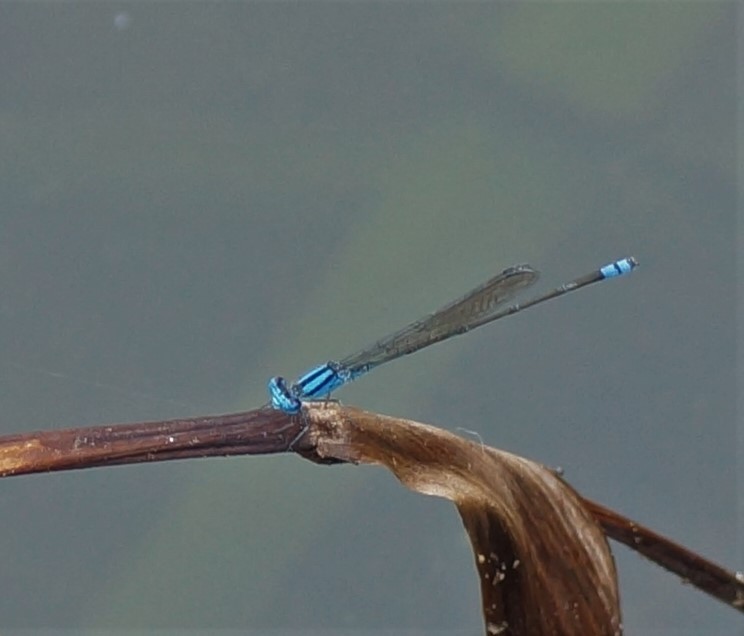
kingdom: Animalia
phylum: Arthropoda
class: Insecta
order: Odonata
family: Coenagrionidae
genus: Pseudagrion
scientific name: Pseudagrion microcephalum
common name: Blue riverdamsel
